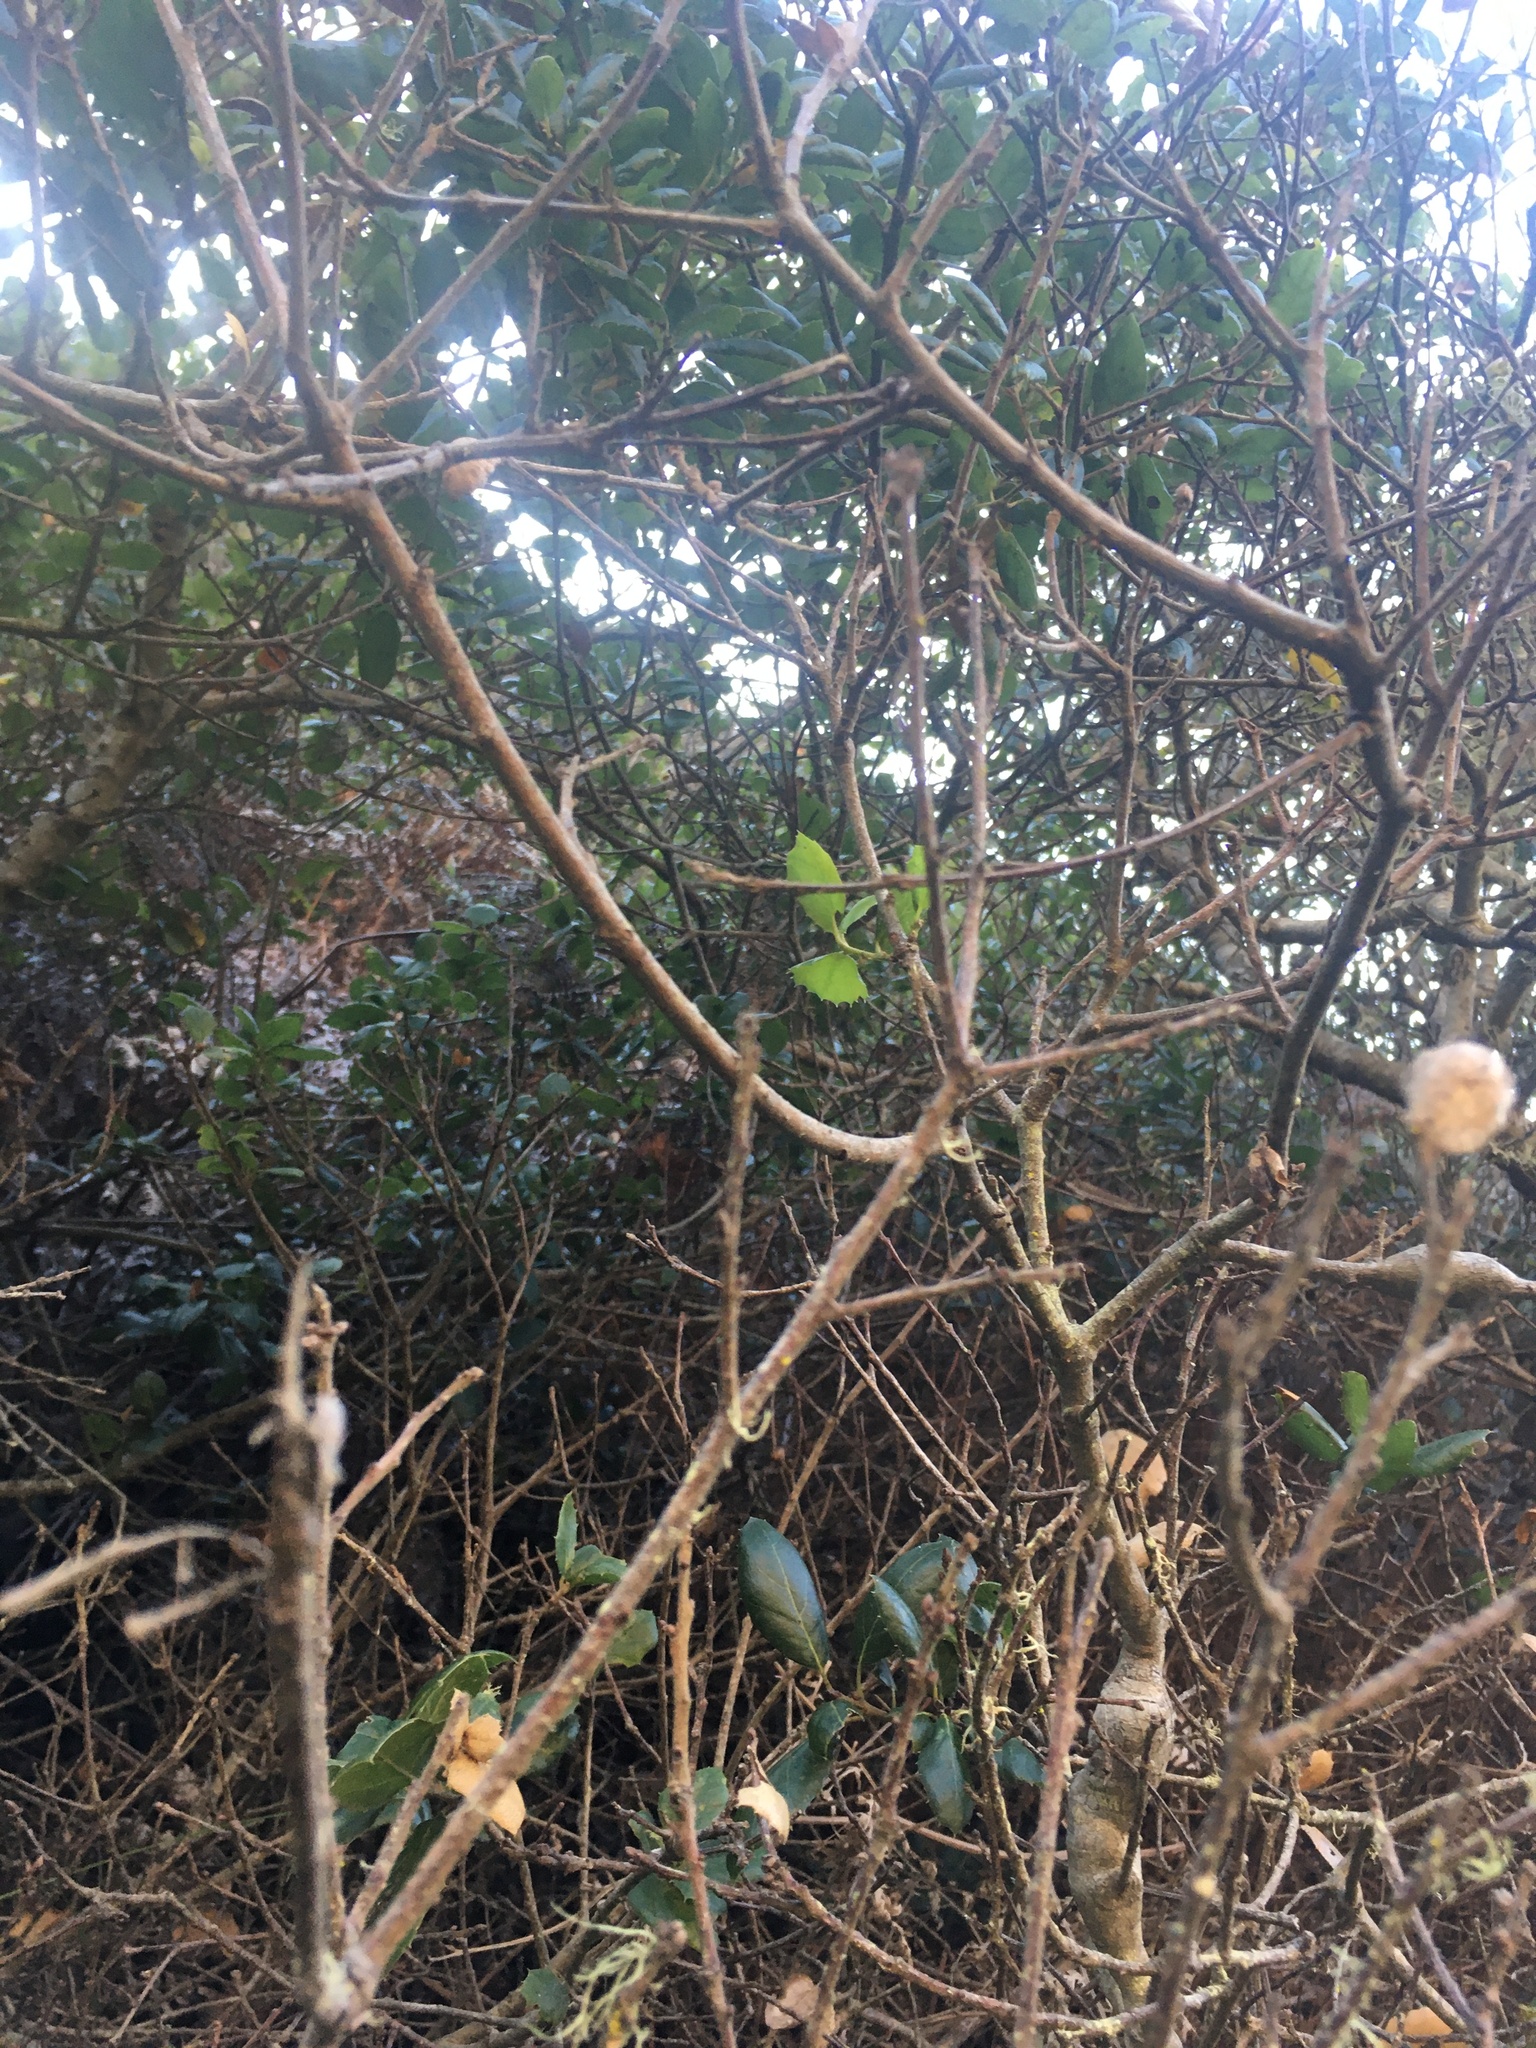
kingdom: Animalia
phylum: Arthropoda
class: Insecta
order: Hymenoptera
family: Cynipidae
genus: Callirhytis
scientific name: Callirhytis
